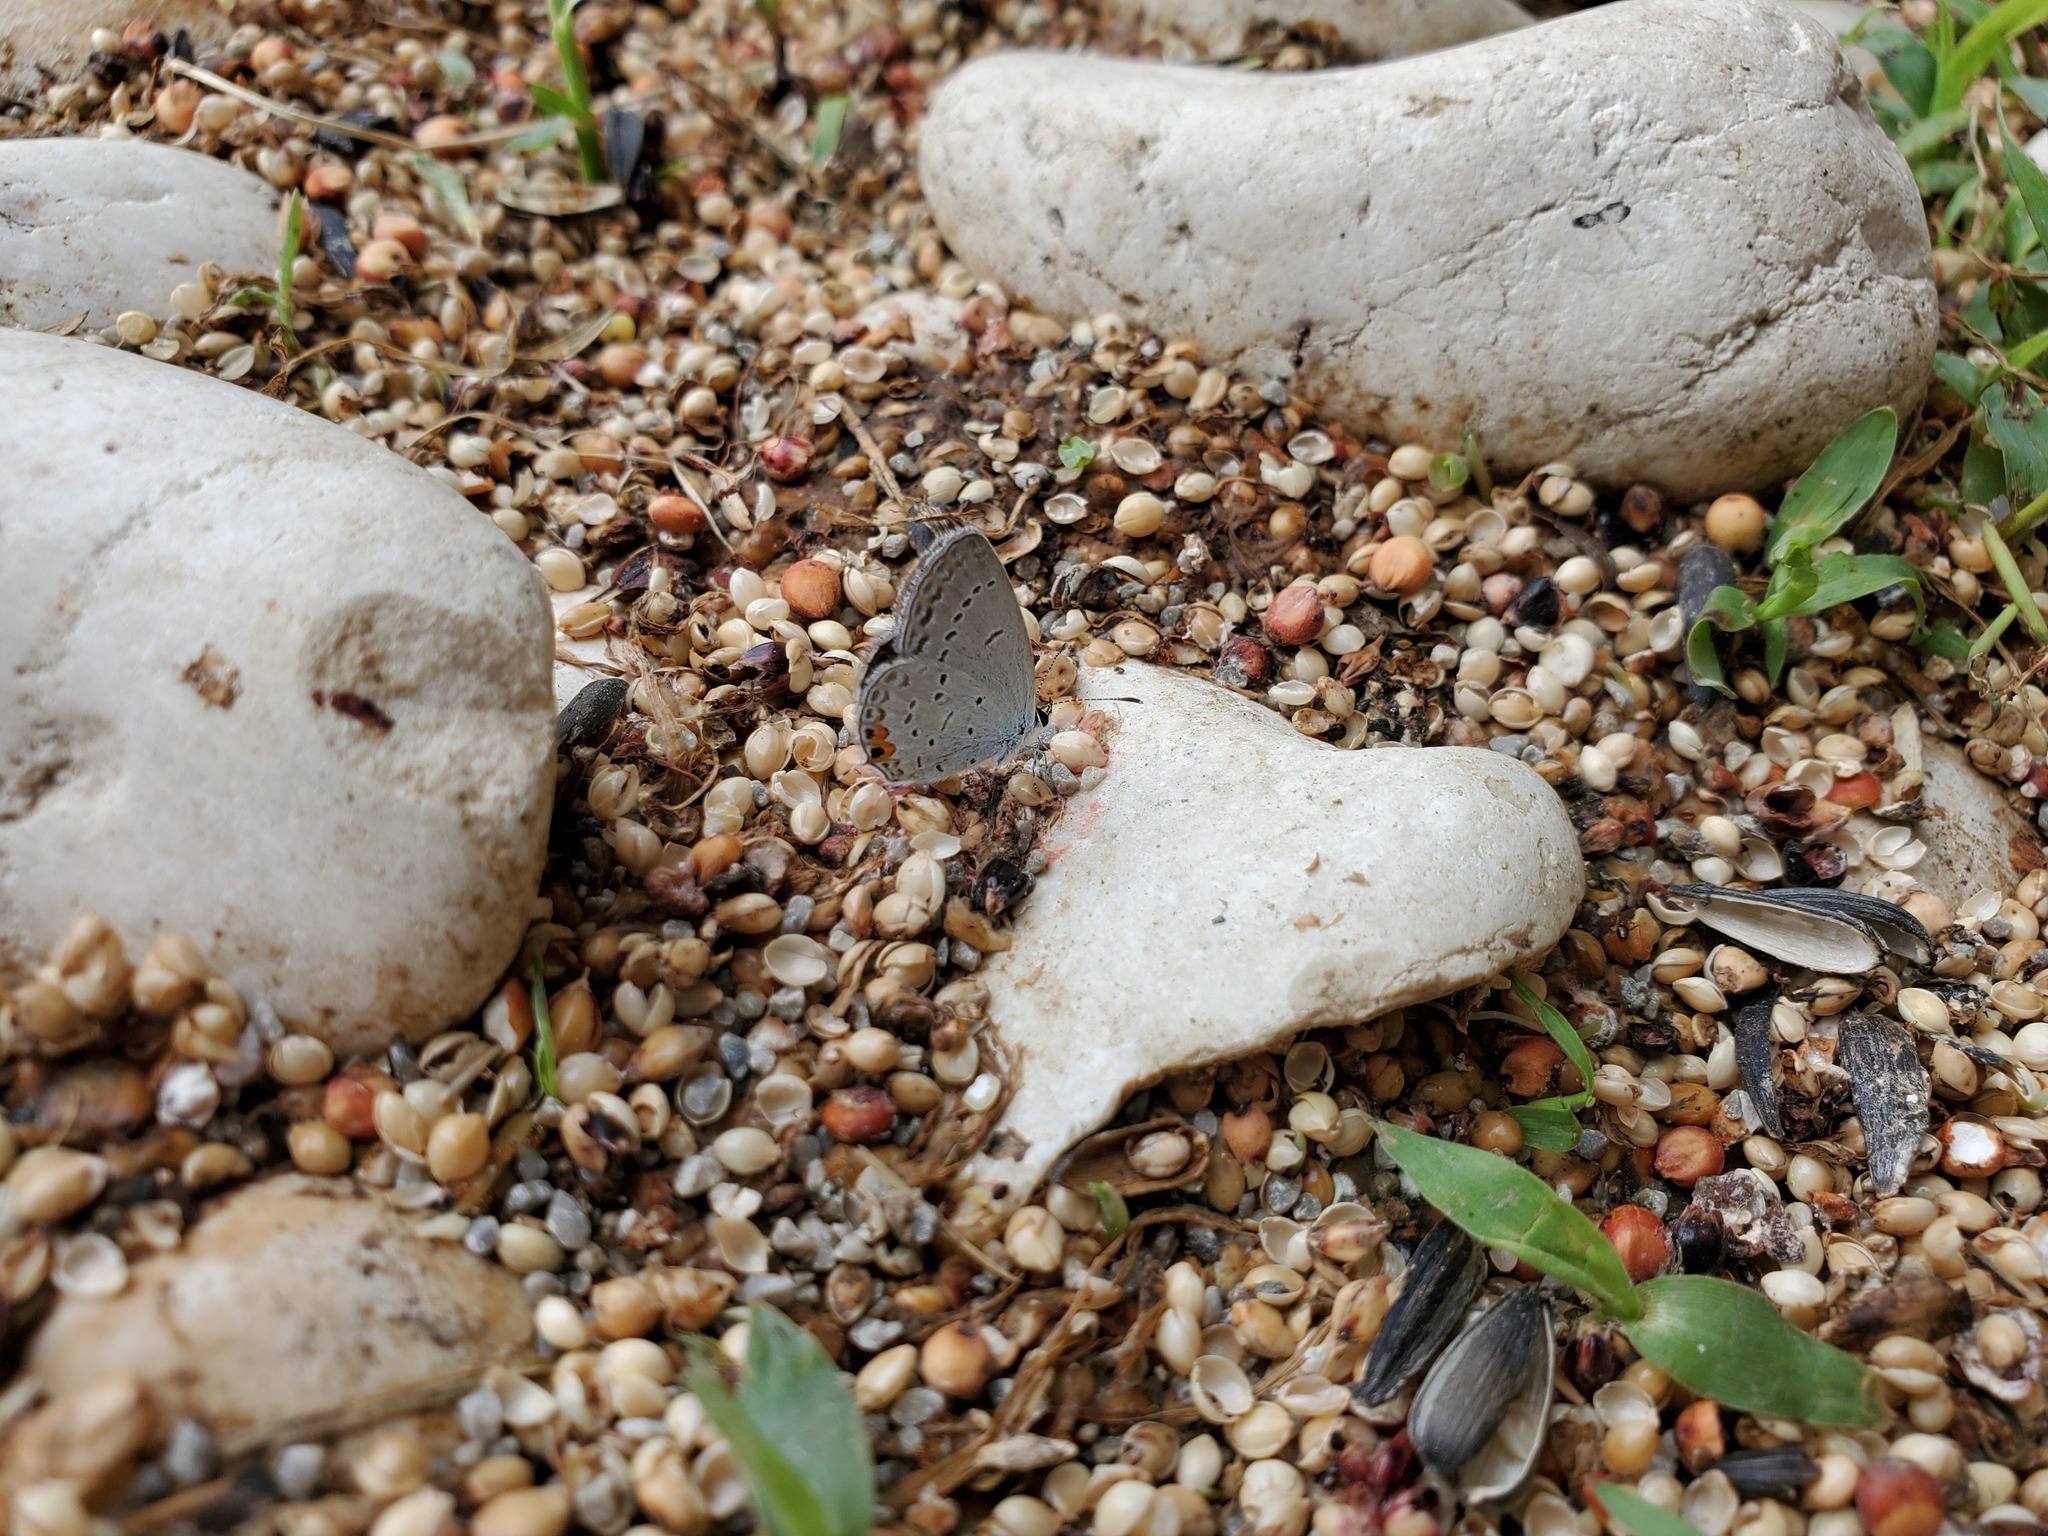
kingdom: Animalia
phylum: Arthropoda
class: Insecta
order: Lepidoptera
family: Lycaenidae
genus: Elkalyce
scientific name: Elkalyce comyntas
